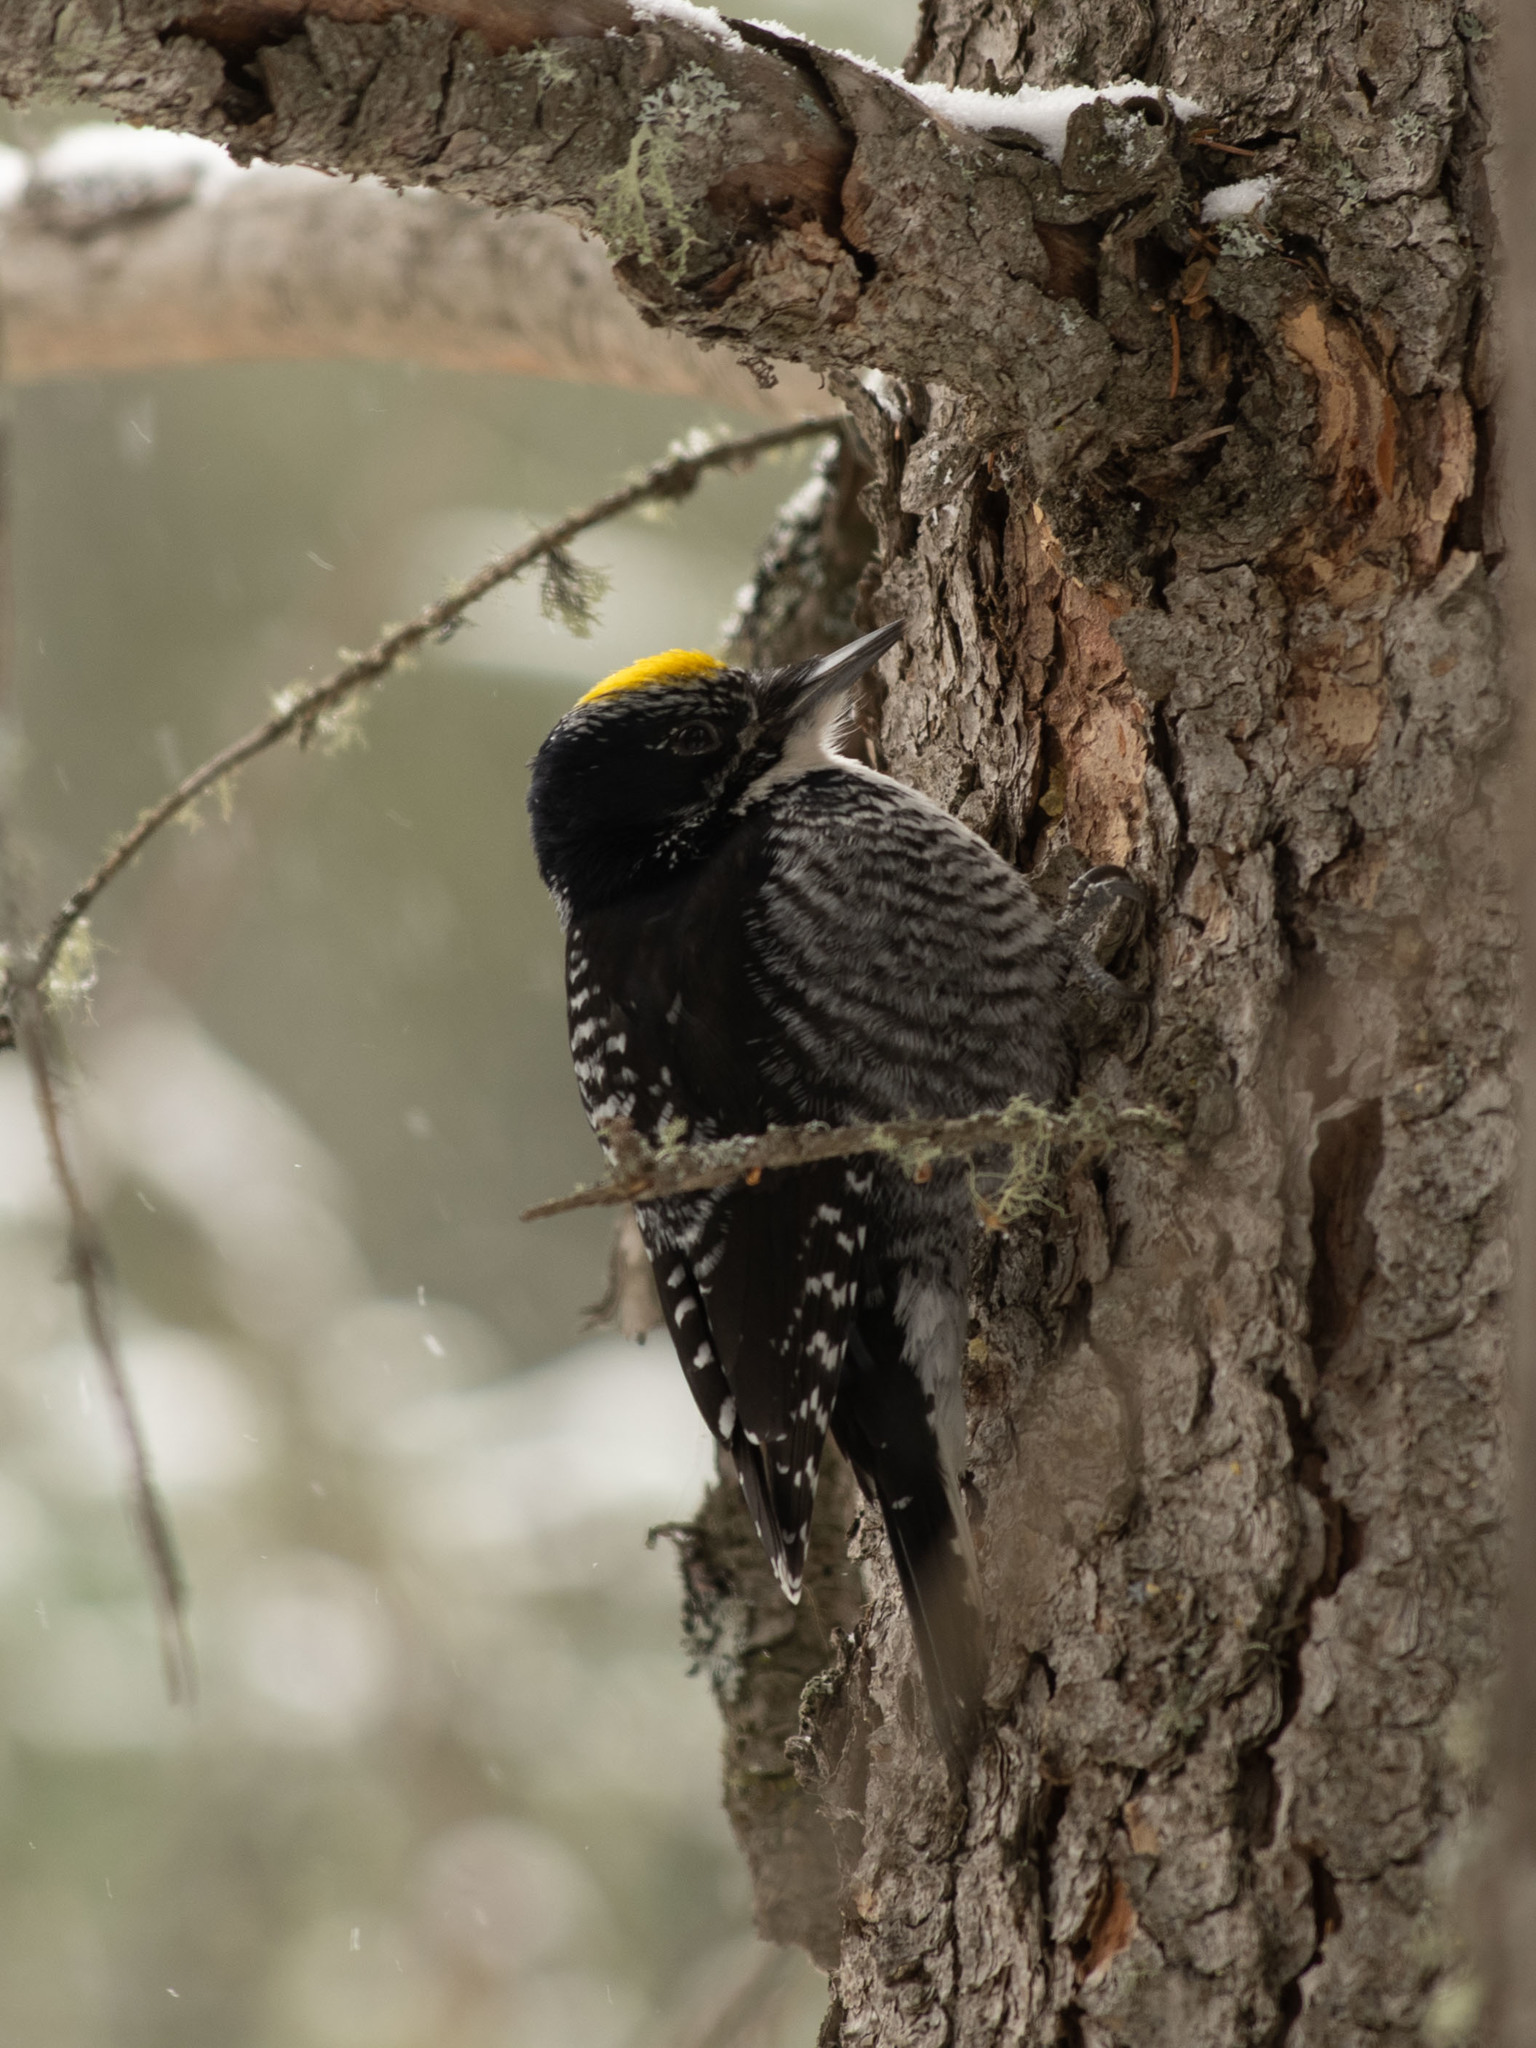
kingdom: Animalia
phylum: Chordata
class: Aves
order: Piciformes
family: Picidae
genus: Picoides
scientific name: Picoides dorsalis
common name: American three-toed woodpecker
